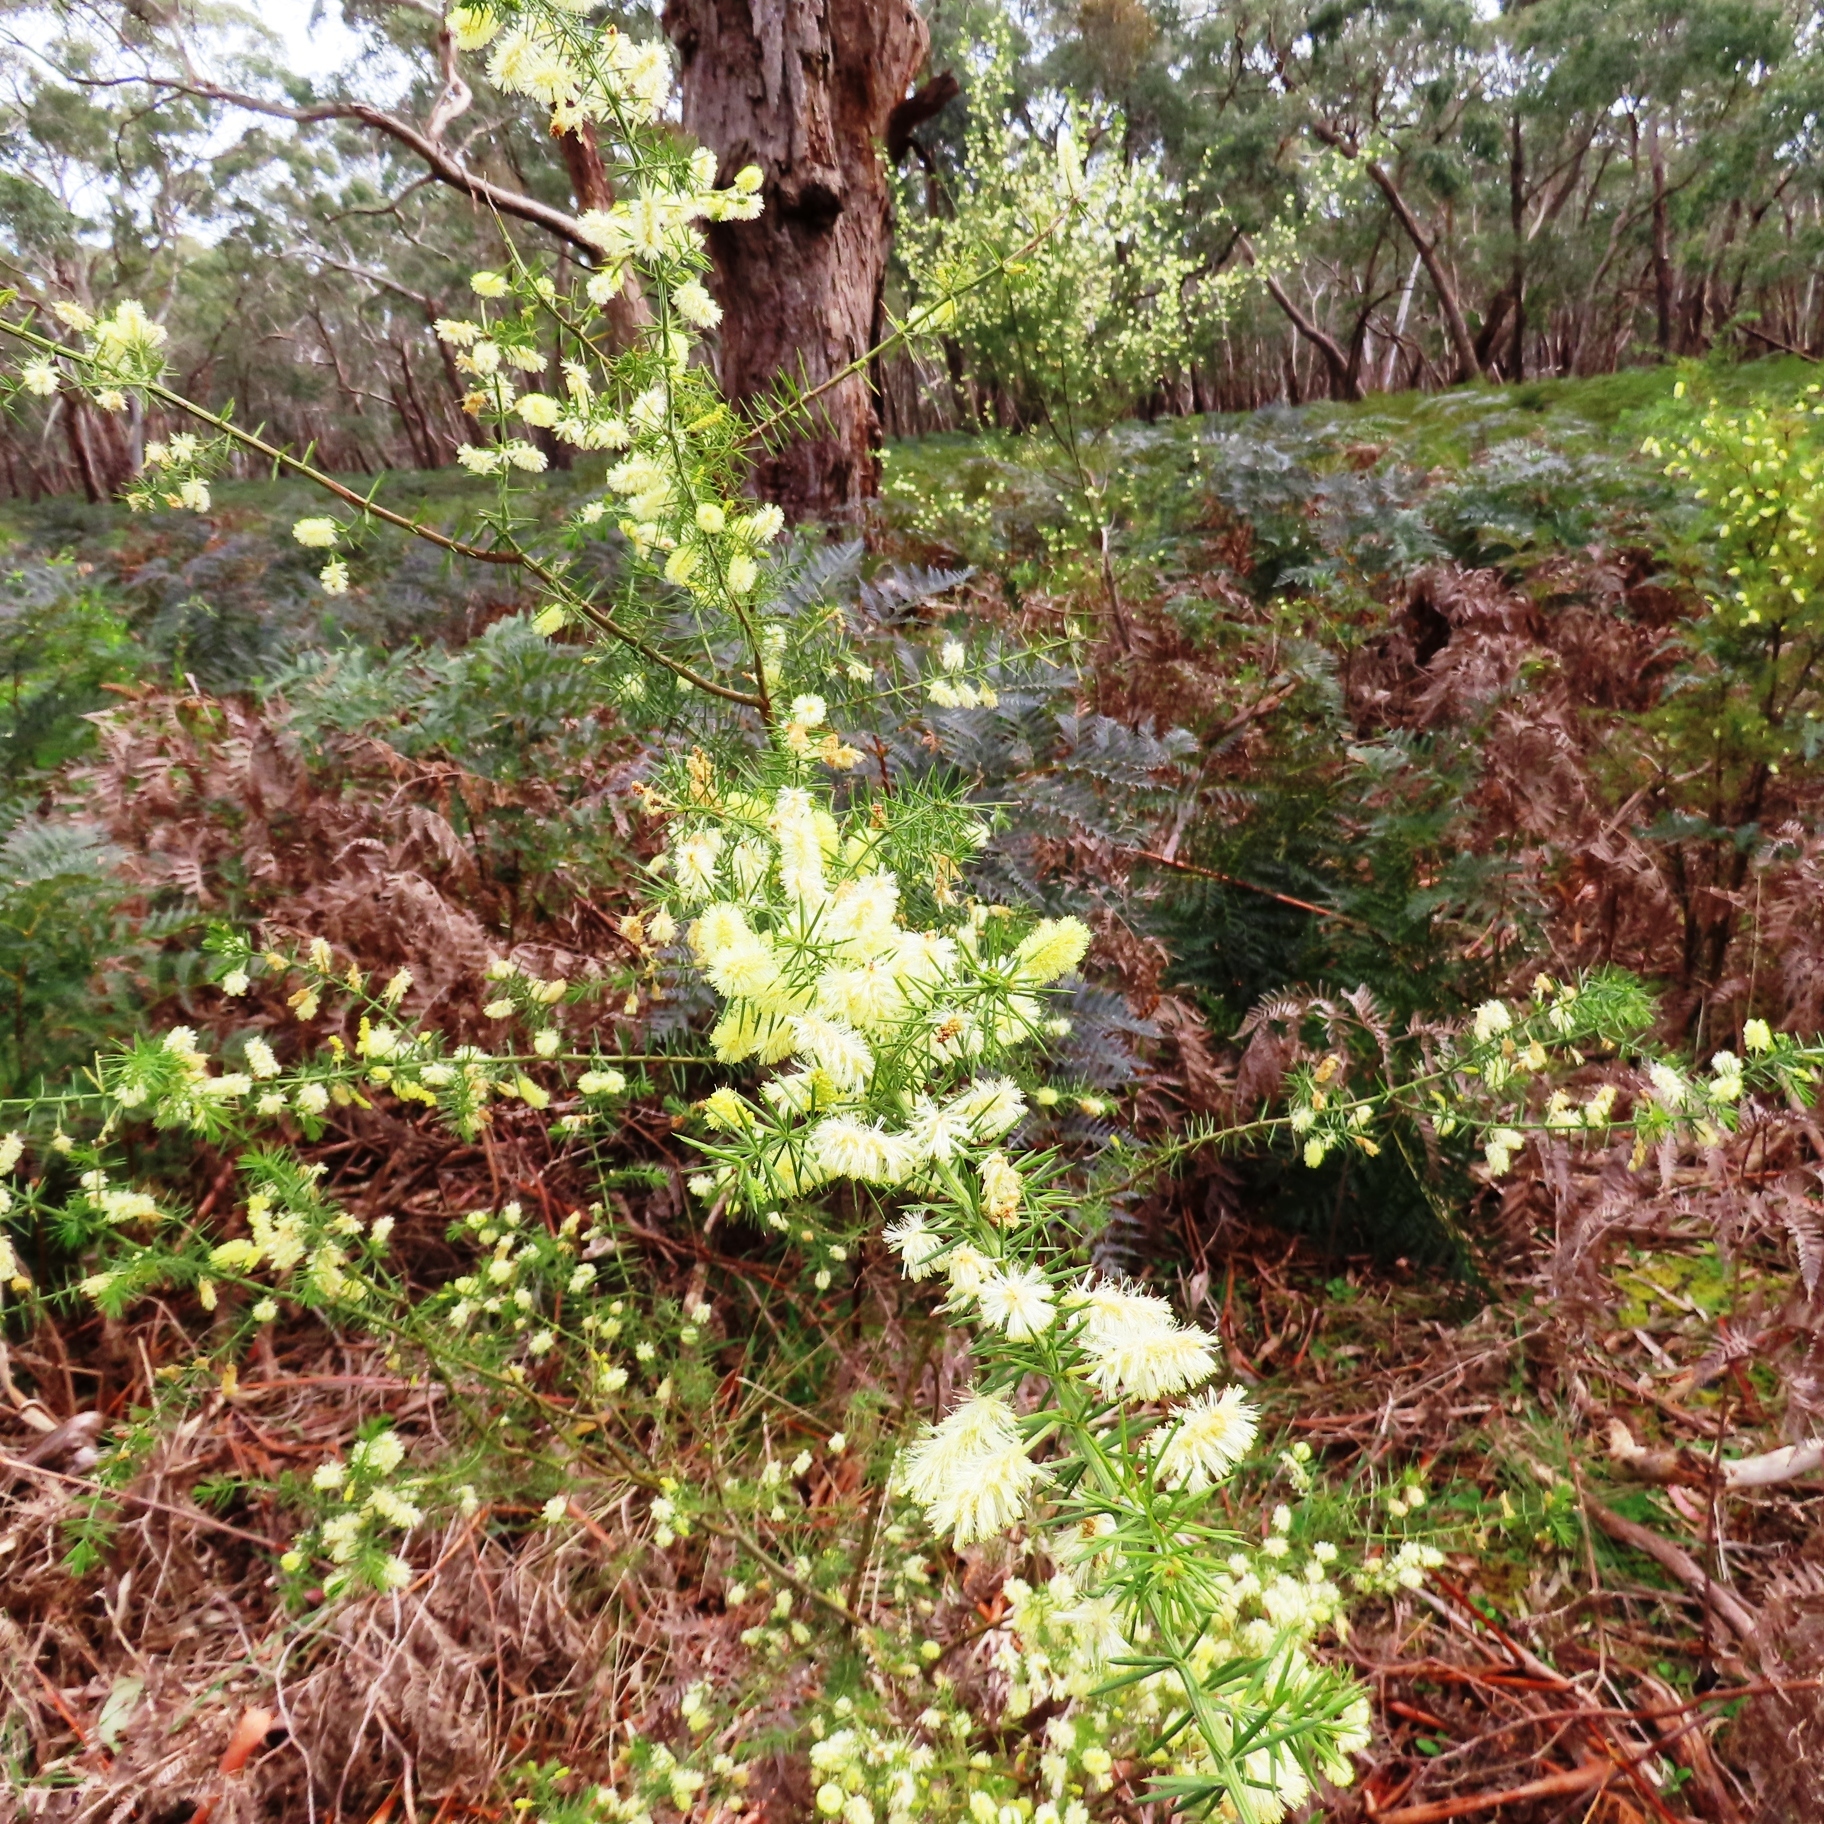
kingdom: Plantae
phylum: Tracheophyta
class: Magnoliopsida
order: Fabales
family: Fabaceae
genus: Acacia
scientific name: Acacia verticillata
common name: Prickly moses
